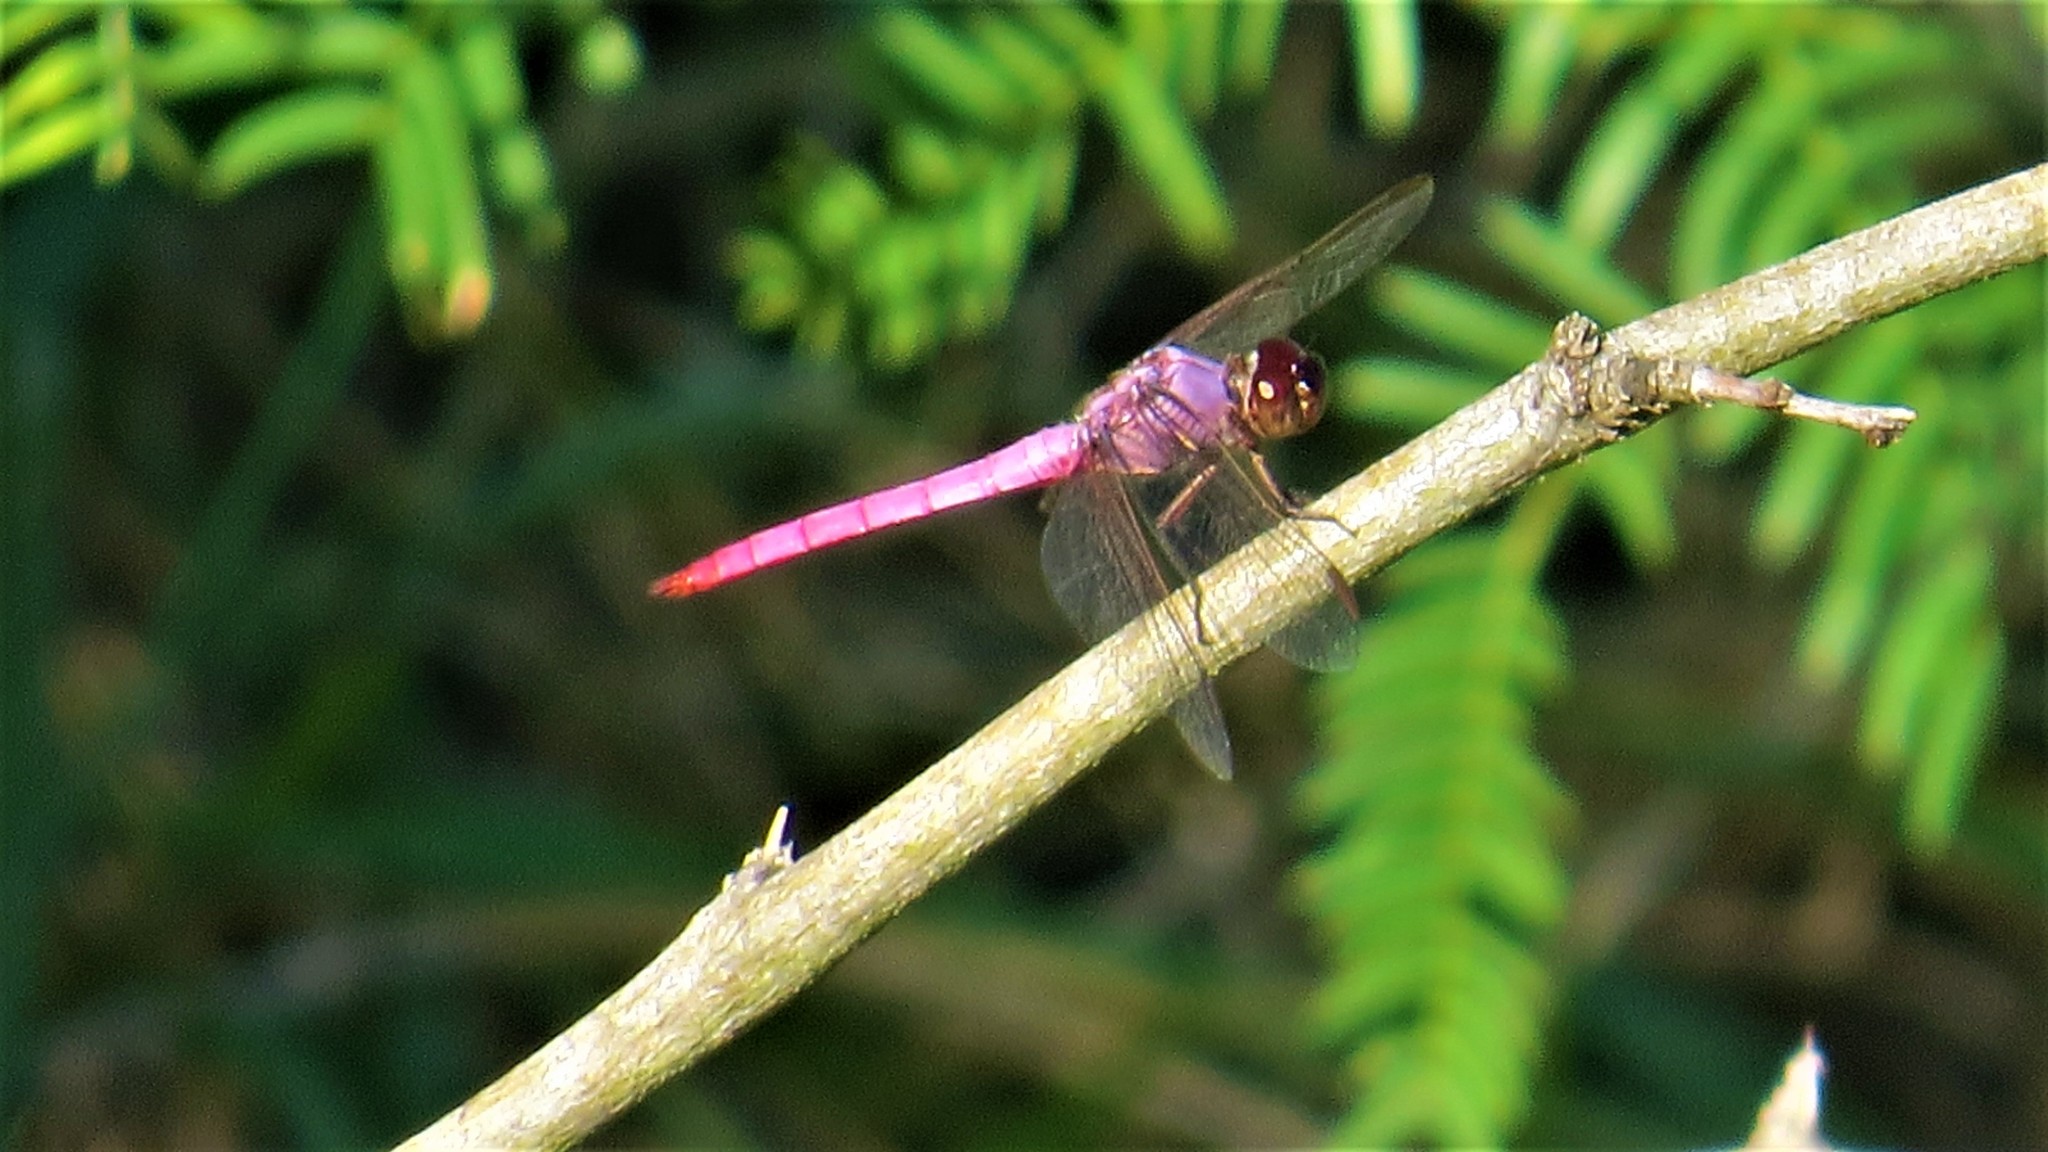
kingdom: Animalia
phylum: Arthropoda
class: Insecta
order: Odonata
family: Libellulidae
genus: Orthemis
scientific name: Orthemis ferruginea
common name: Roseate skimmer
